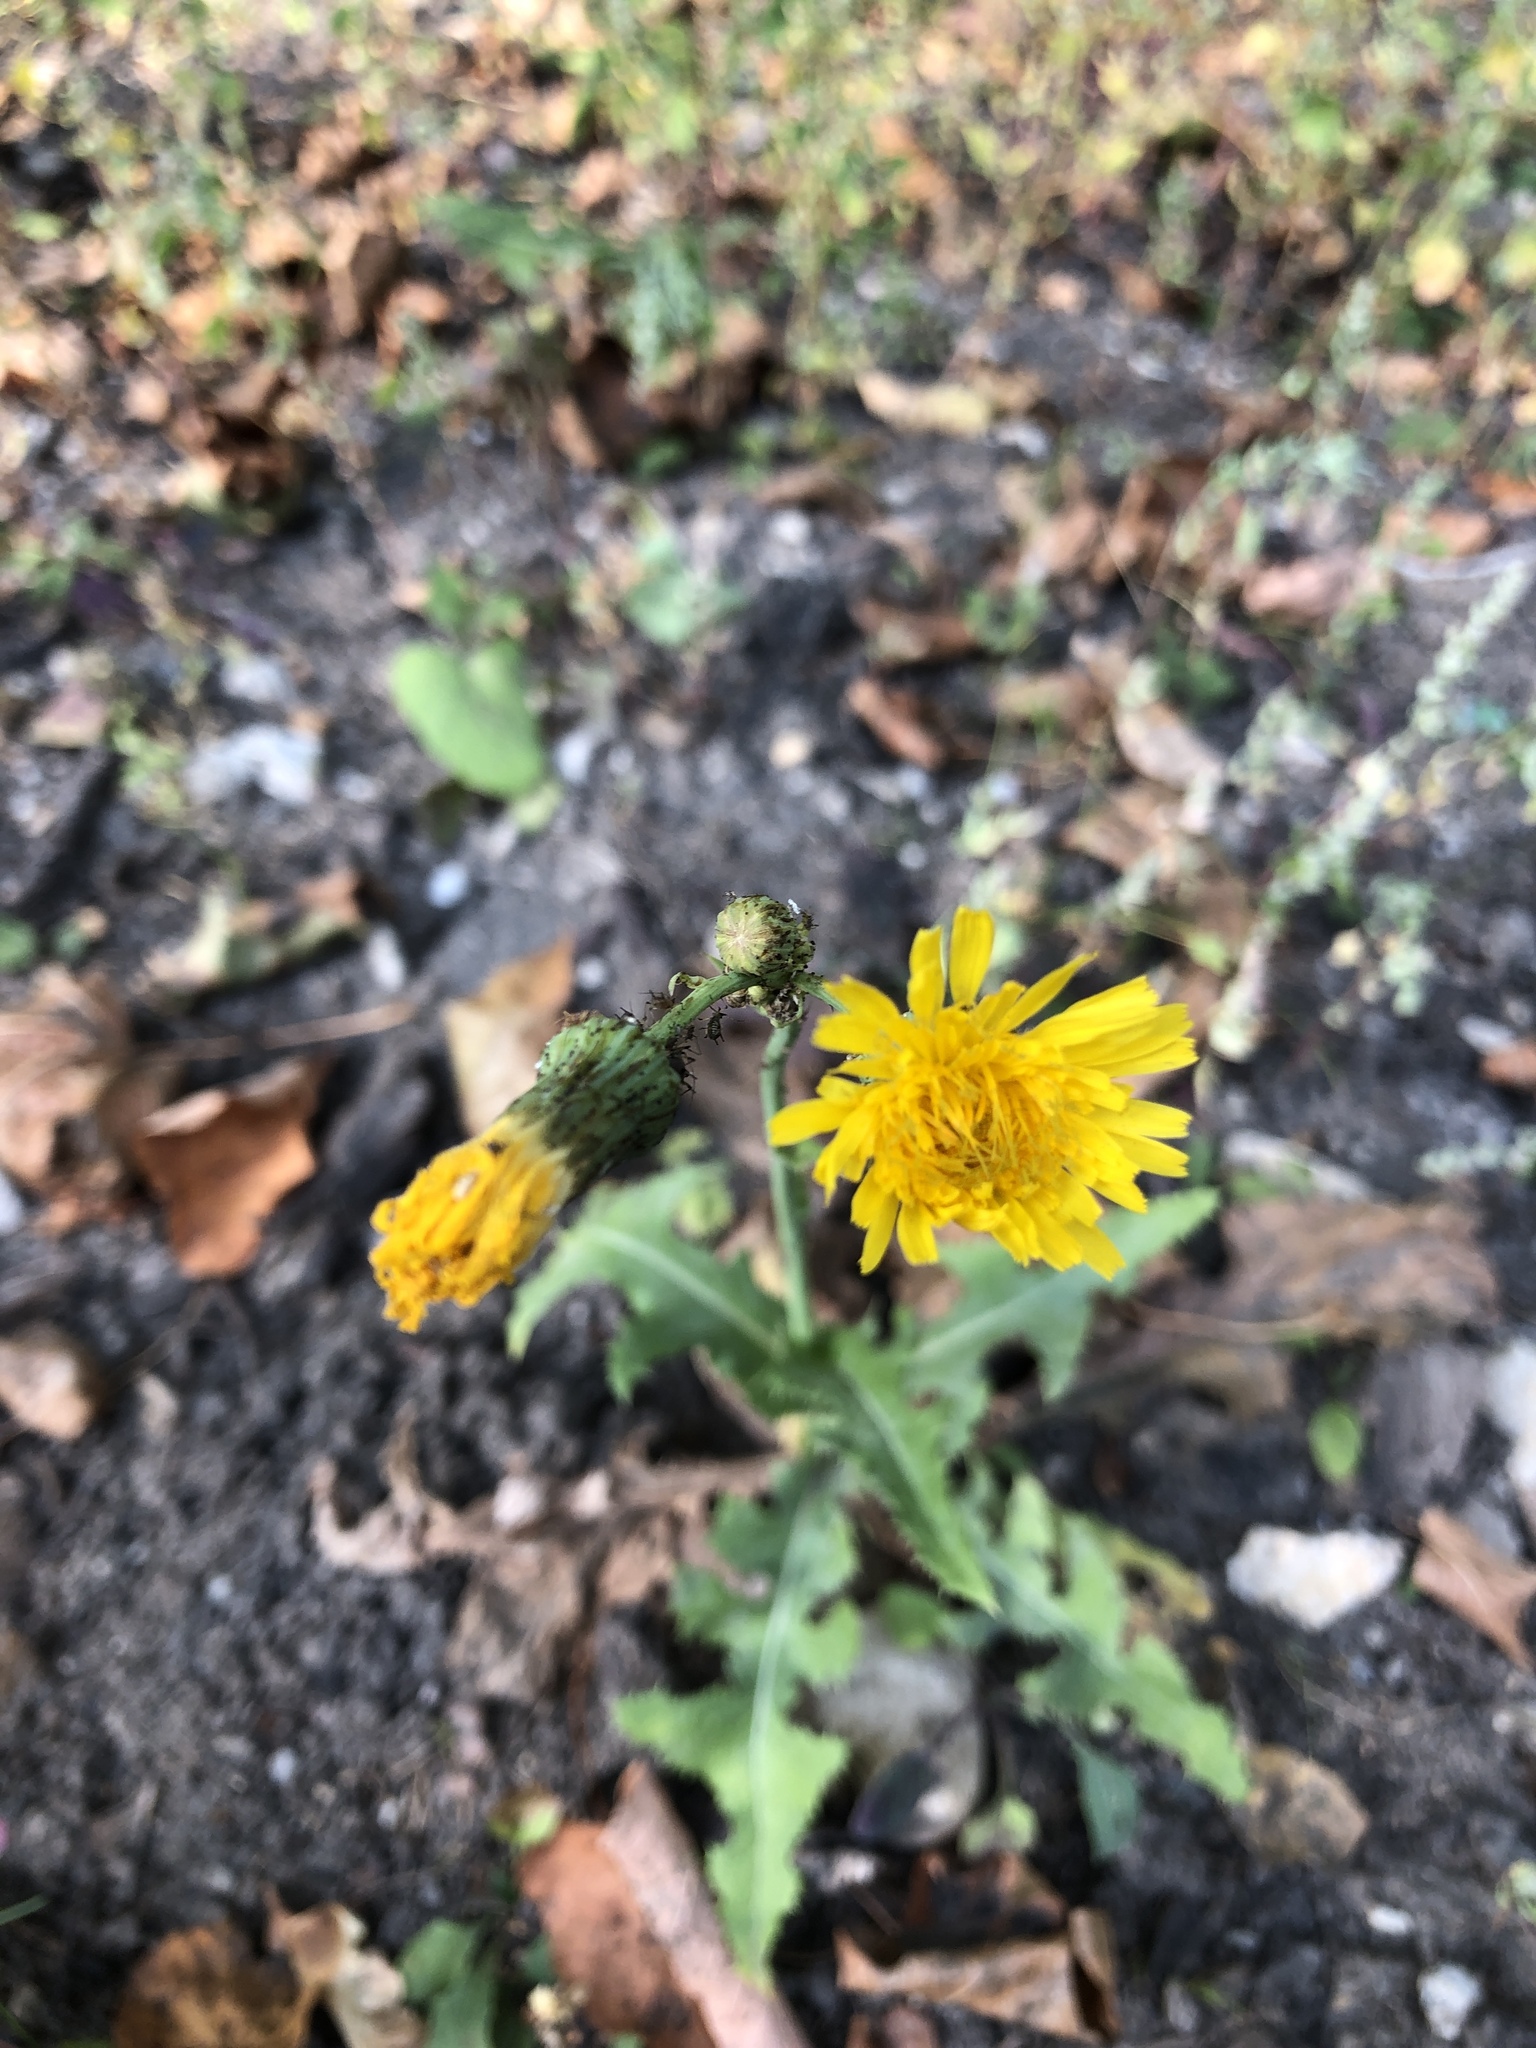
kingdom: Plantae
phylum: Tracheophyta
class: Magnoliopsida
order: Asterales
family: Asteraceae
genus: Sonchus
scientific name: Sonchus arvensis
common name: Perennial sow-thistle
